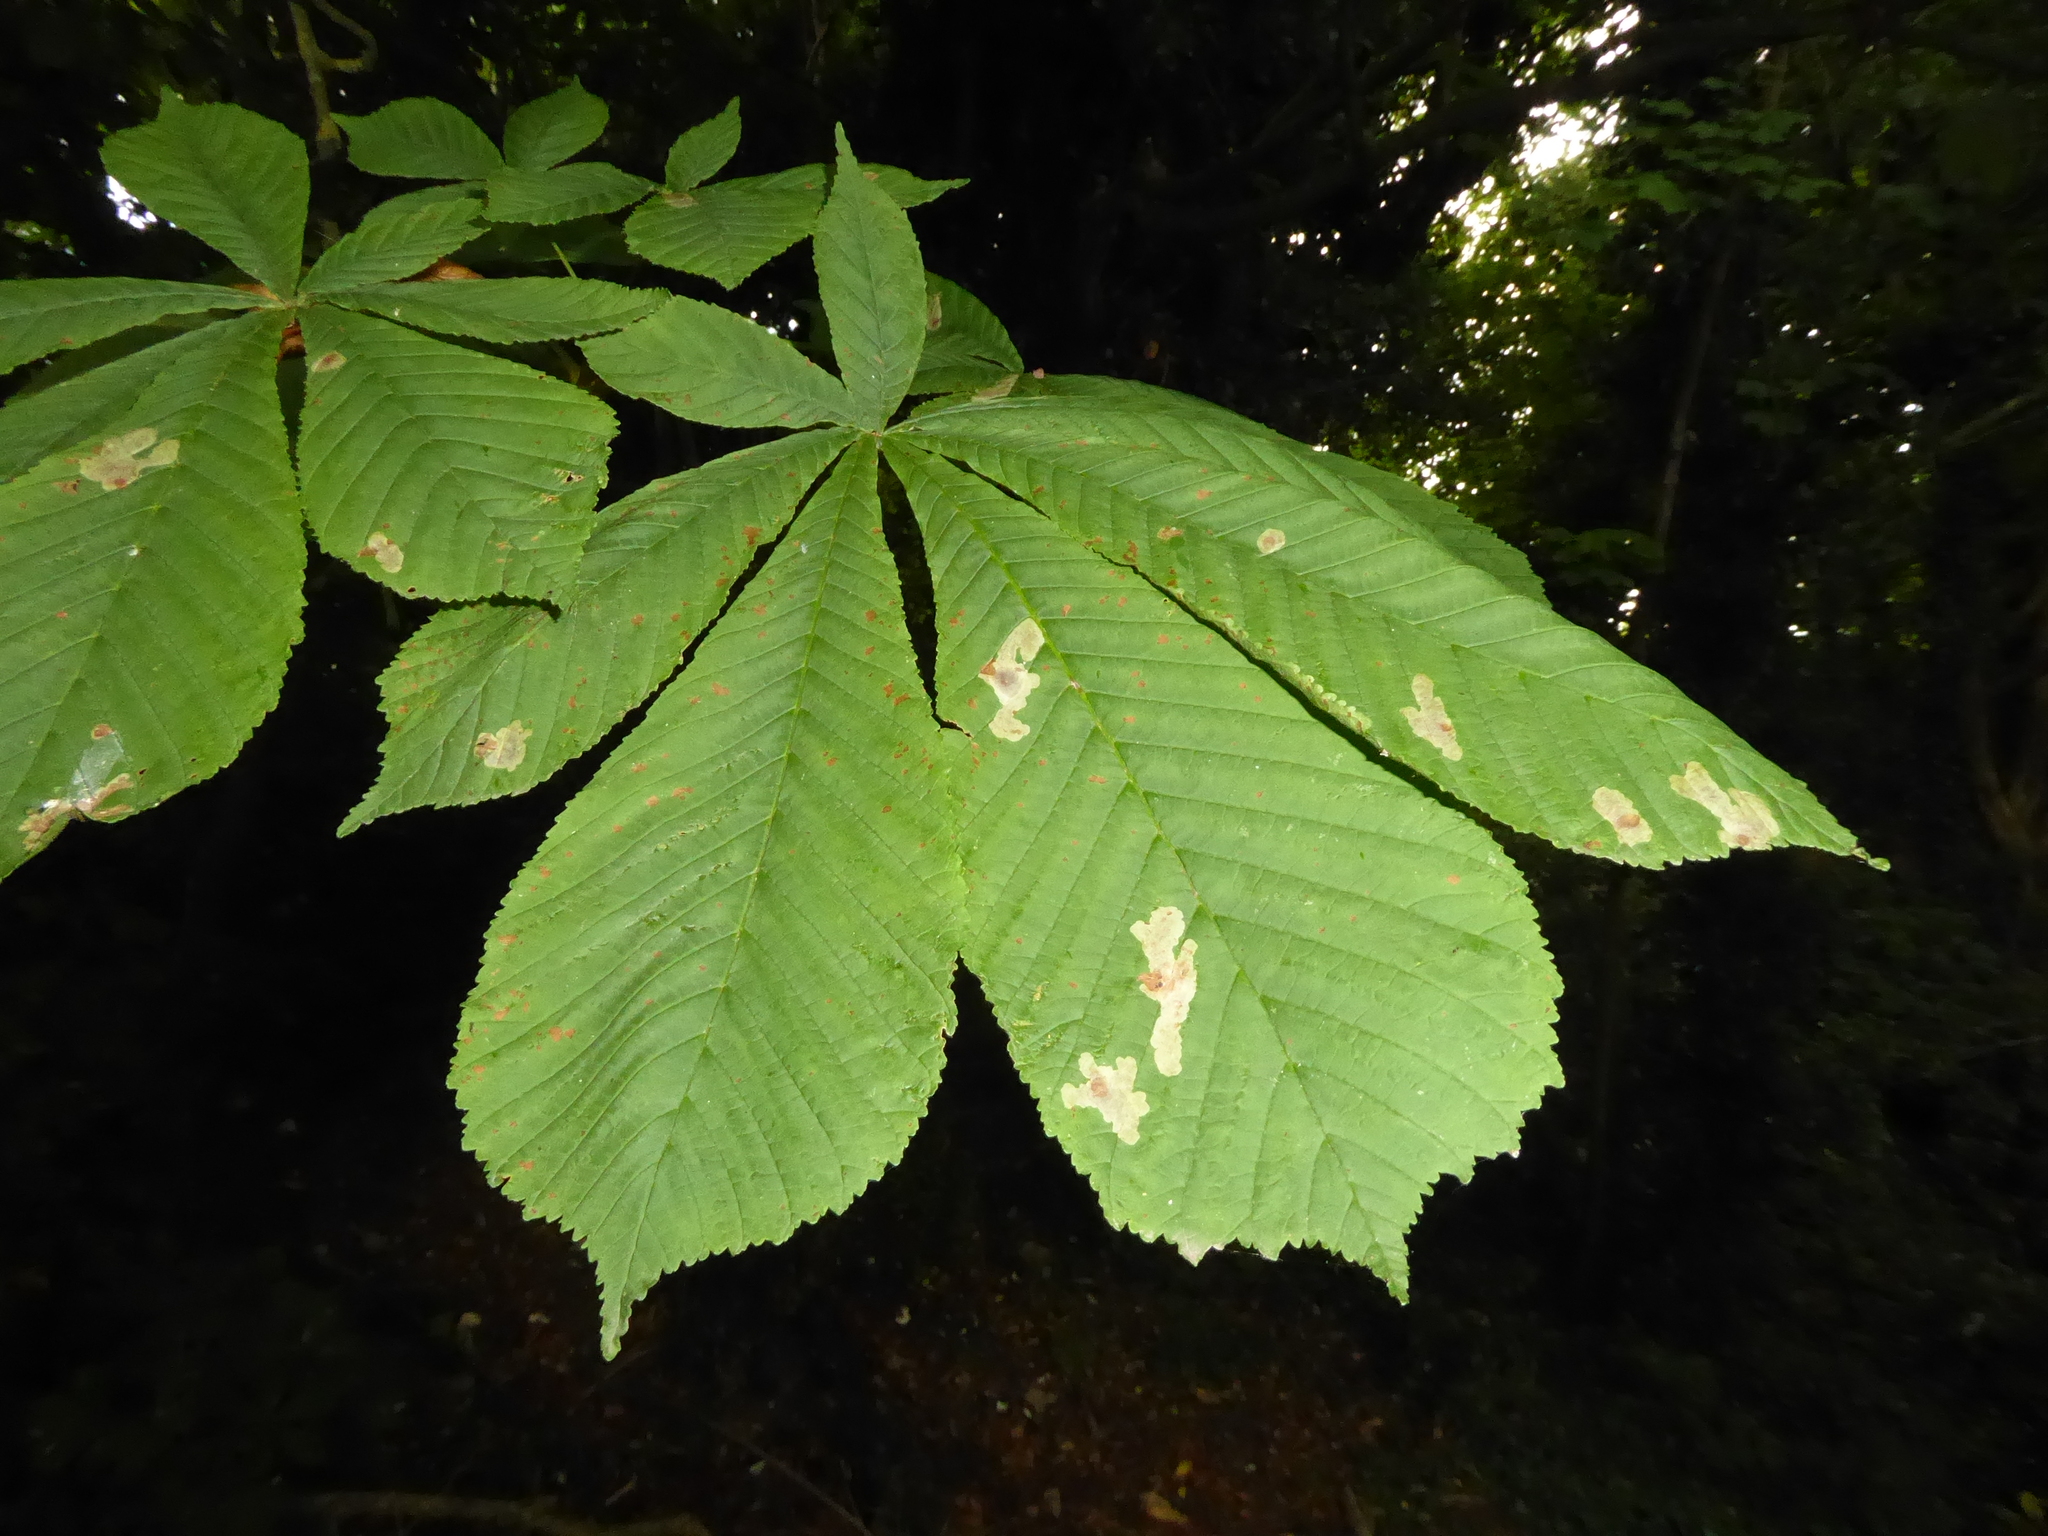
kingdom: Animalia
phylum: Arthropoda
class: Insecta
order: Lepidoptera
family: Gracillariidae
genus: Cameraria
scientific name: Cameraria ohridella
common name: Horse-chestnut leaf-miner
